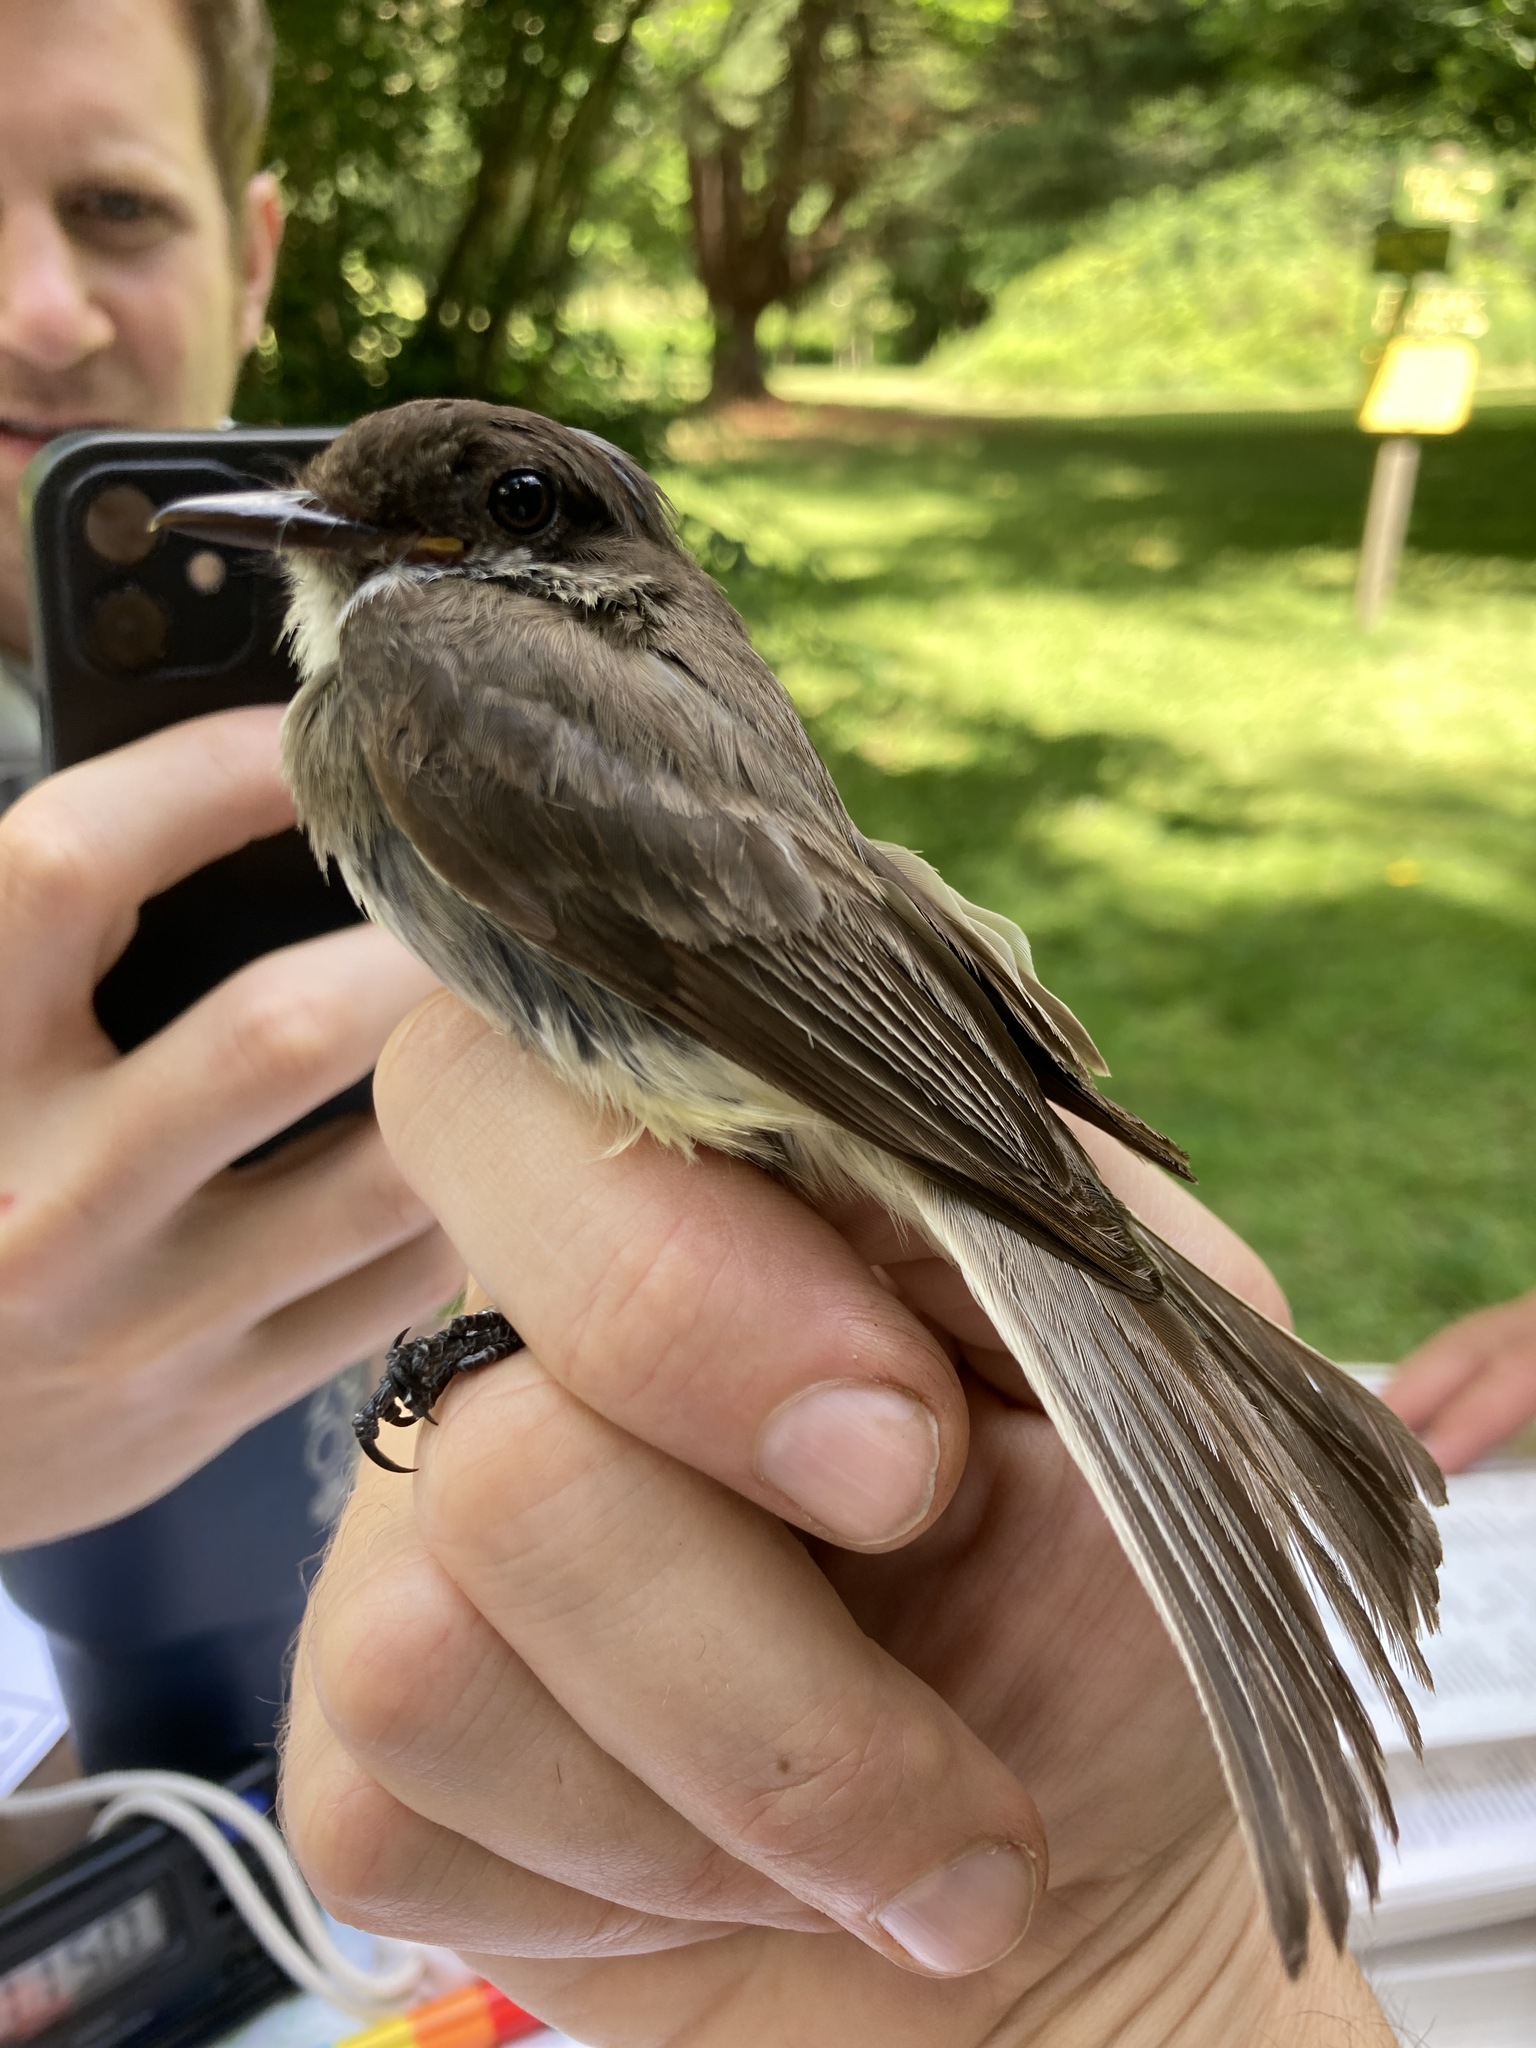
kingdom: Animalia
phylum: Chordata
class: Aves
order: Passeriformes
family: Tyrannidae
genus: Sayornis
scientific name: Sayornis phoebe
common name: Eastern phoebe
